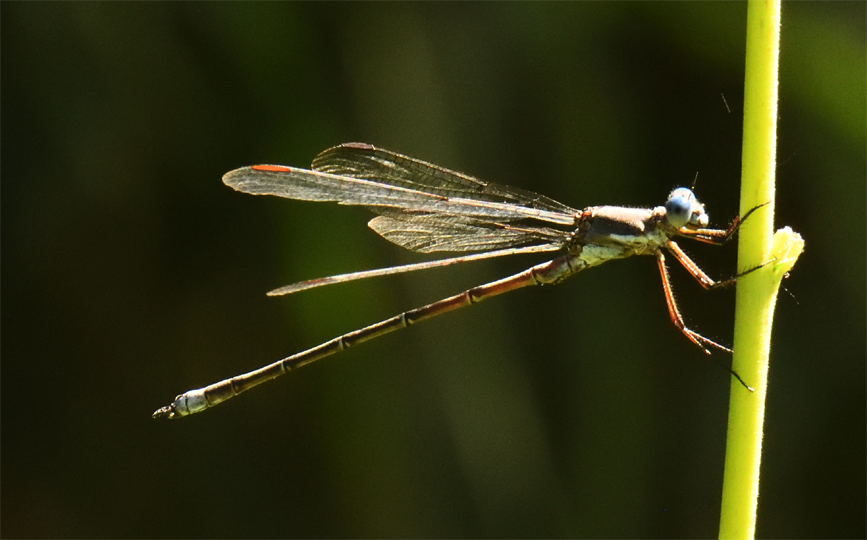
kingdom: Animalia
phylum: Arthropoda
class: Insecta
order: Odonata
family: Lestidae
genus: Archilestes
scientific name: Archilestes californicus
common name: California spreadwing
